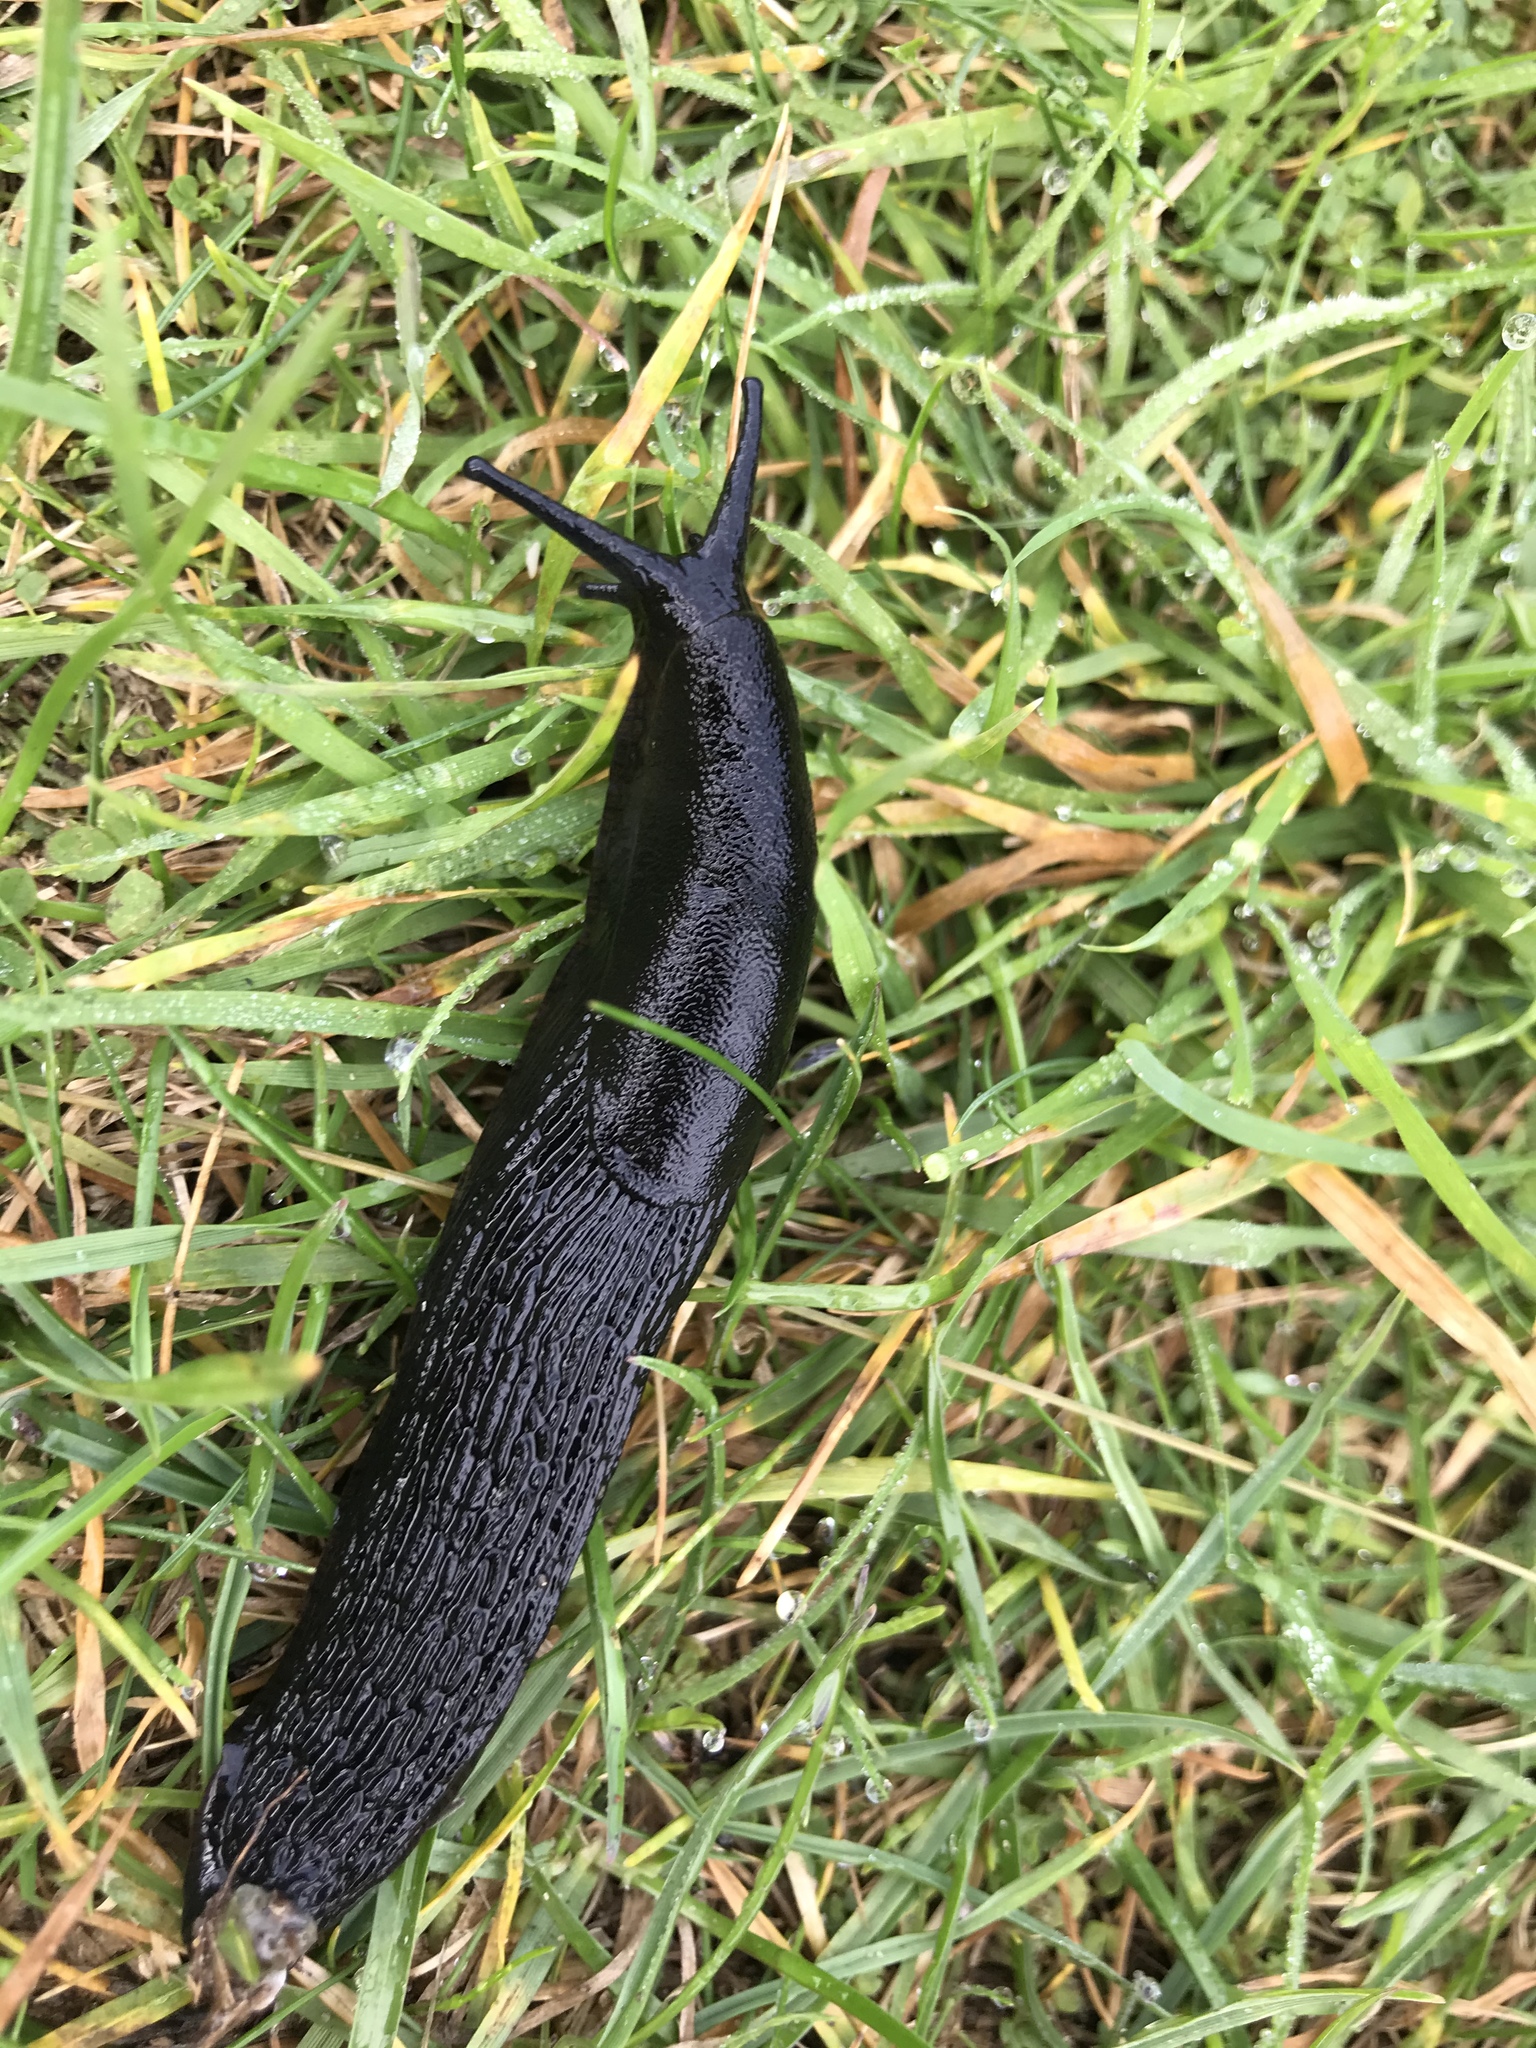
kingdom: Animalia
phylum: Mollusca
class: Gastropoda
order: Stylommatophora
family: Arionidae
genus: Arion
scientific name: Arion ater
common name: Black arion
